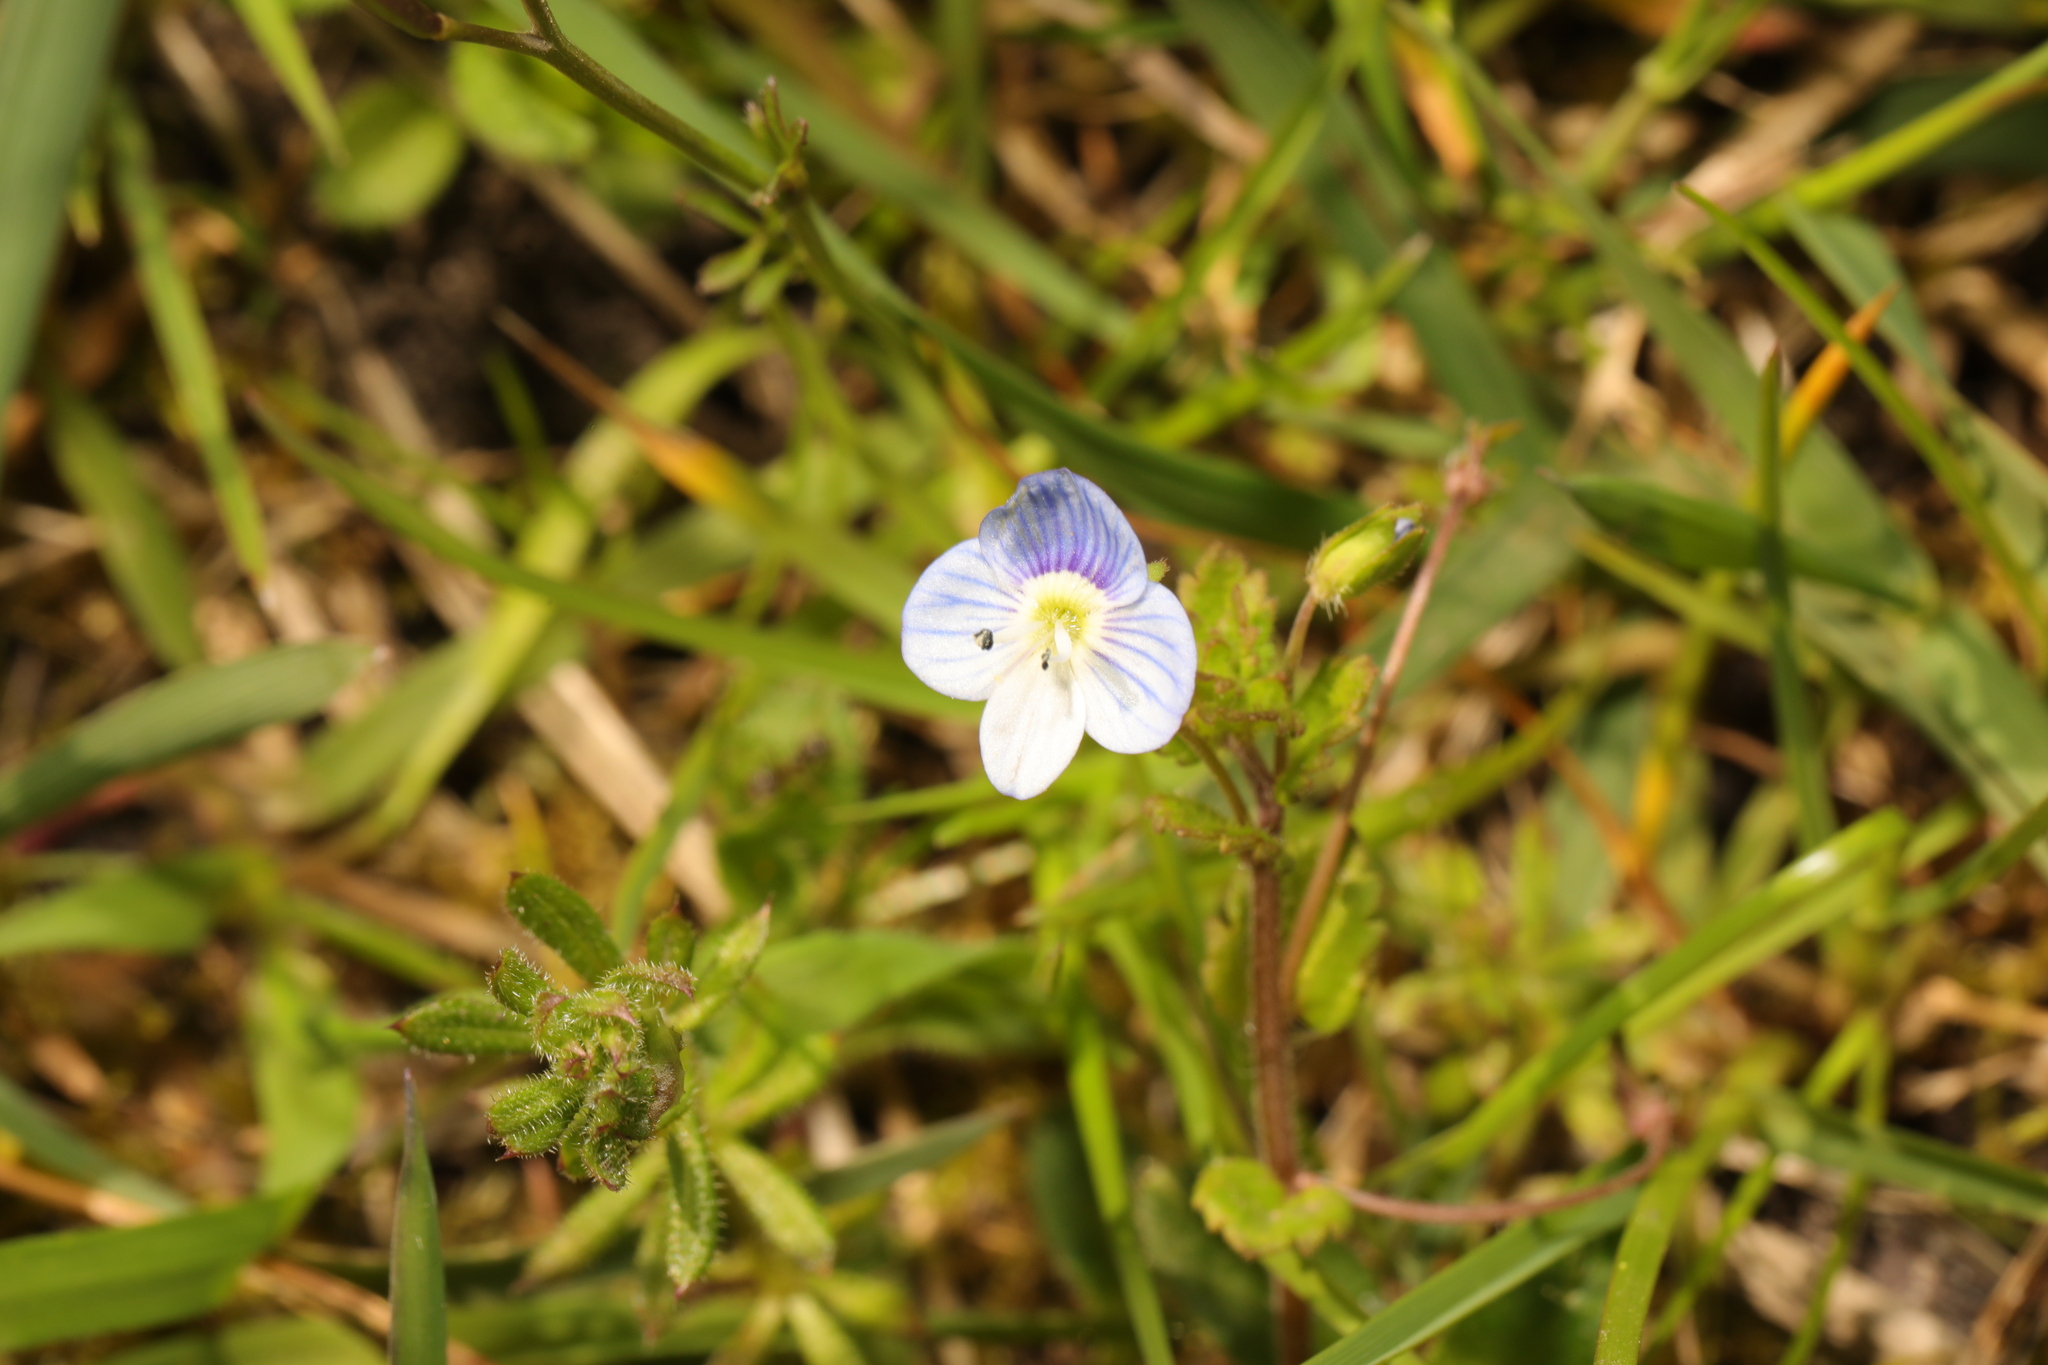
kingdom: Plantae
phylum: Tracheophyta
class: Magnoliopsida
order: Lamiales
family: Plantaginaceae
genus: Veronica
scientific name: Veronica persica
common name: Common field-speedwell
